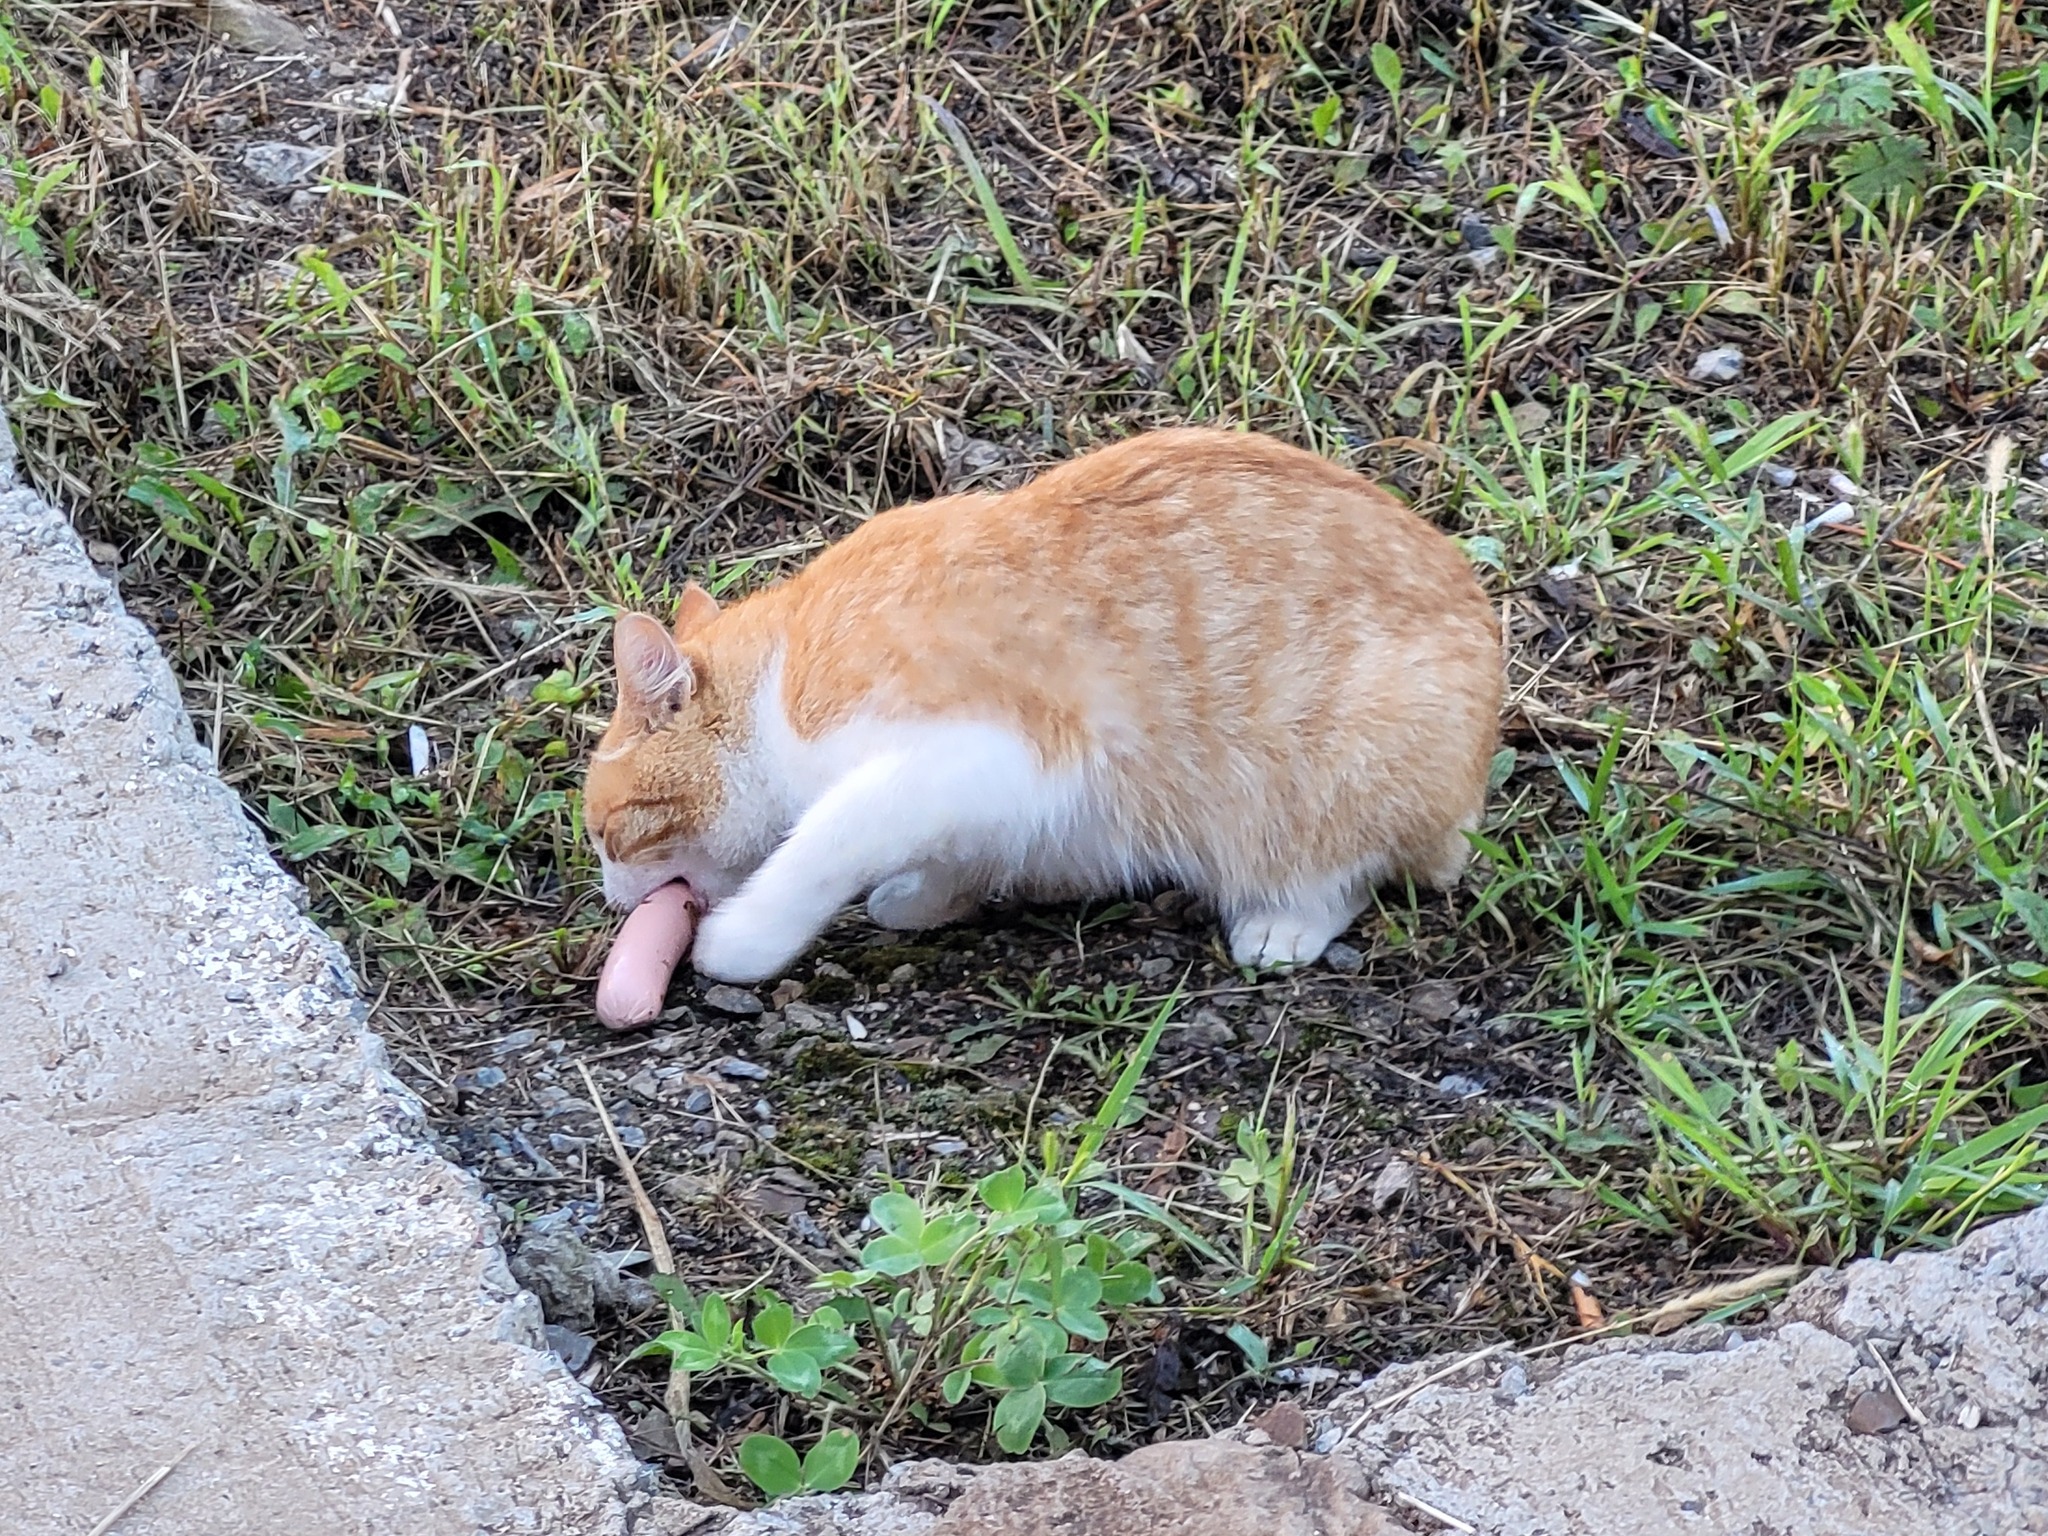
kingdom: Animalia
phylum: Chordata
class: Mammalia
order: Carnivora
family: Felidae
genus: Felis
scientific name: Felis catus
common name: Domestic cat
